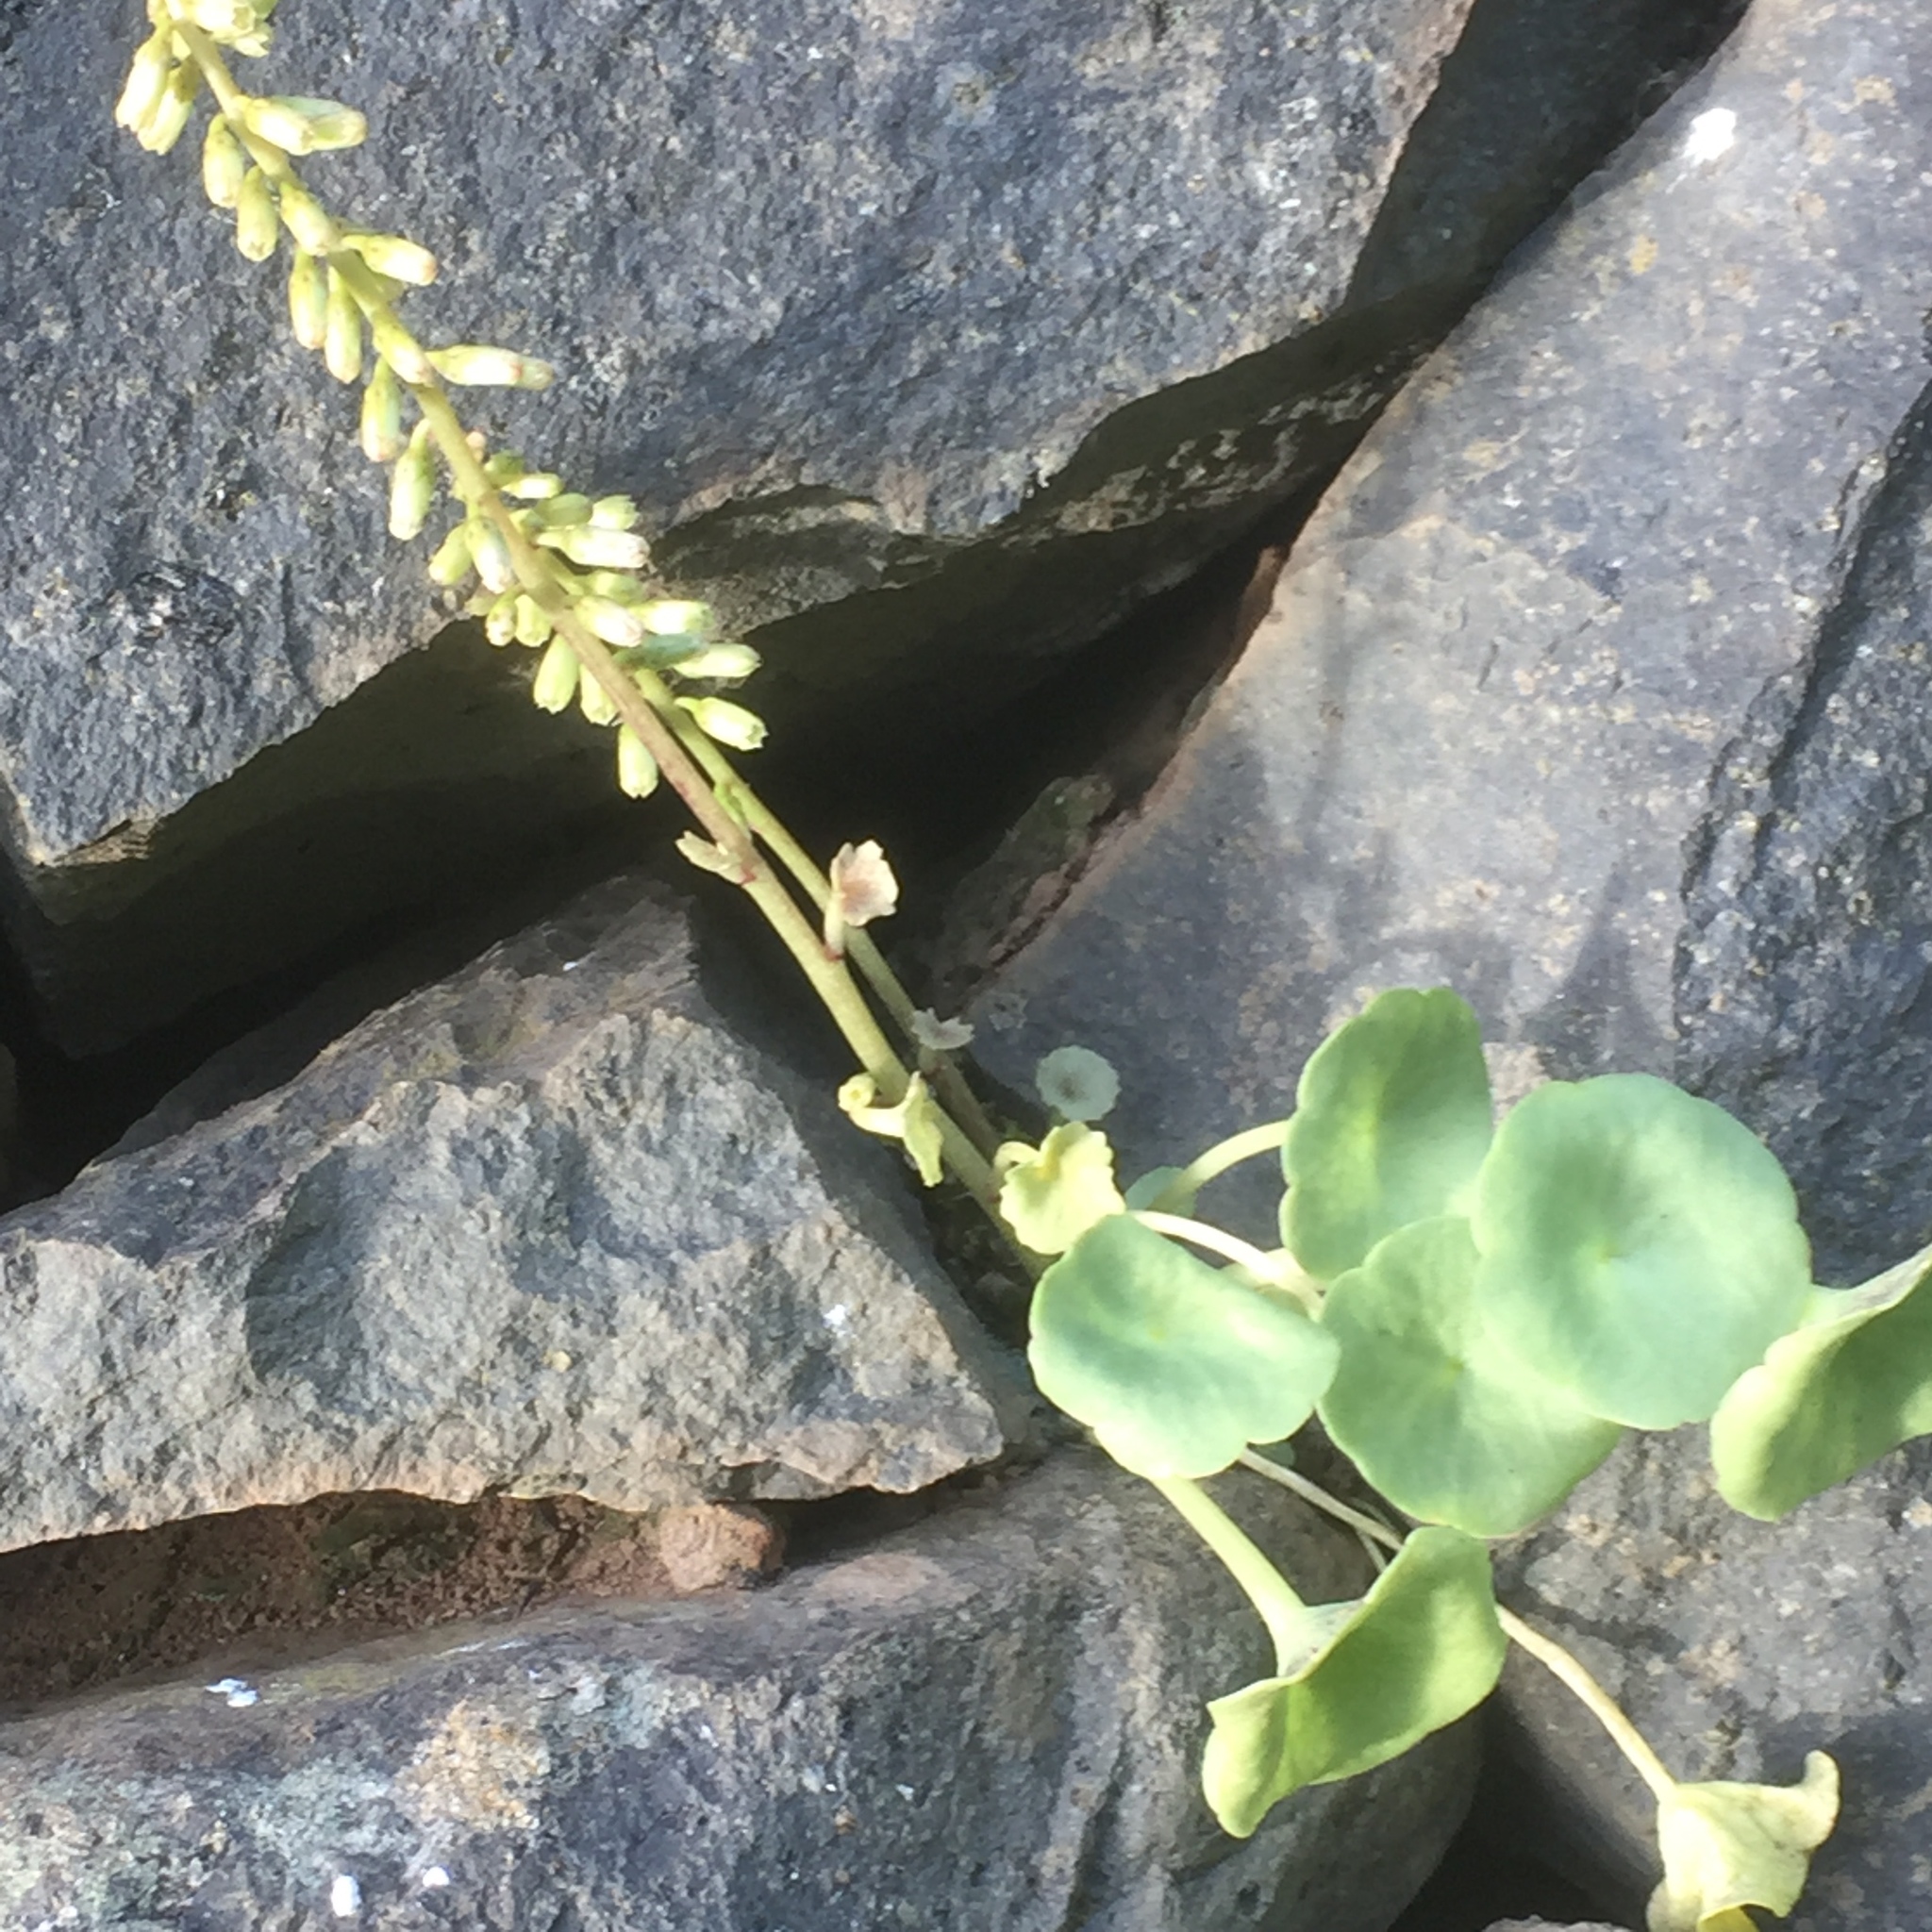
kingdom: Plantae
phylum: Tracheophyta
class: Magnoliopsida
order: Saxifragales
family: Crassulaceae
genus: Umbilicus
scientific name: Umbilicus rupestris
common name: Navelwort
